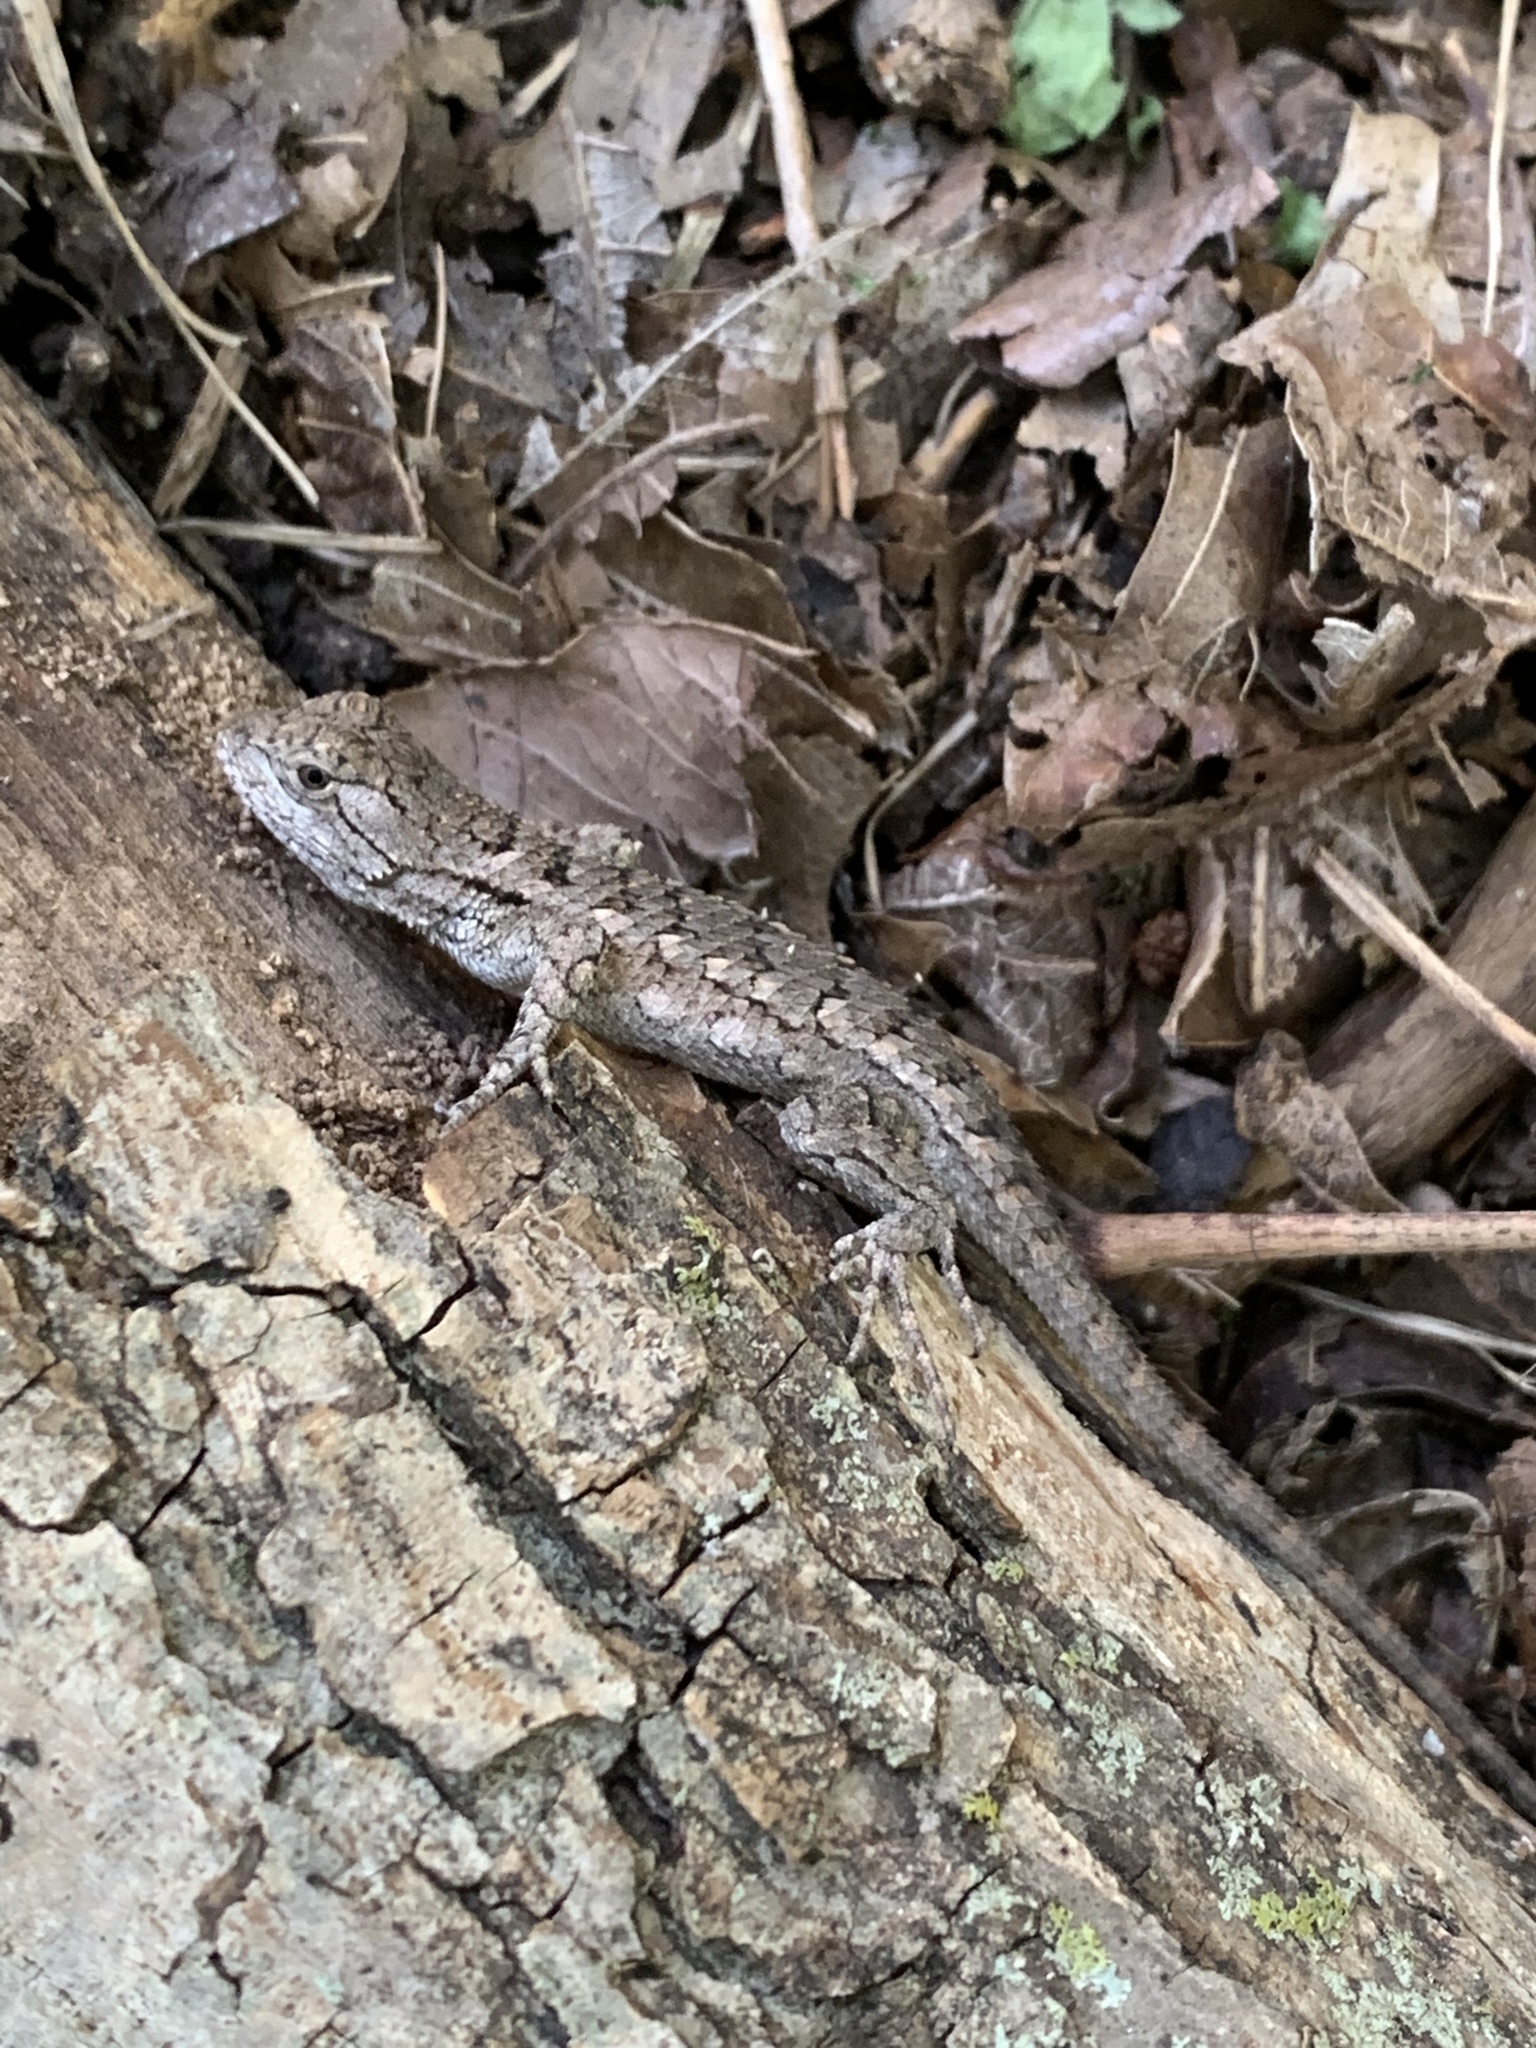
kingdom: Animalia
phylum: Chordata
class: Squamata
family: Phrynosomatidae
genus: Sceloporus
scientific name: Sceloporus olivaceus
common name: Texas spiny lizard
